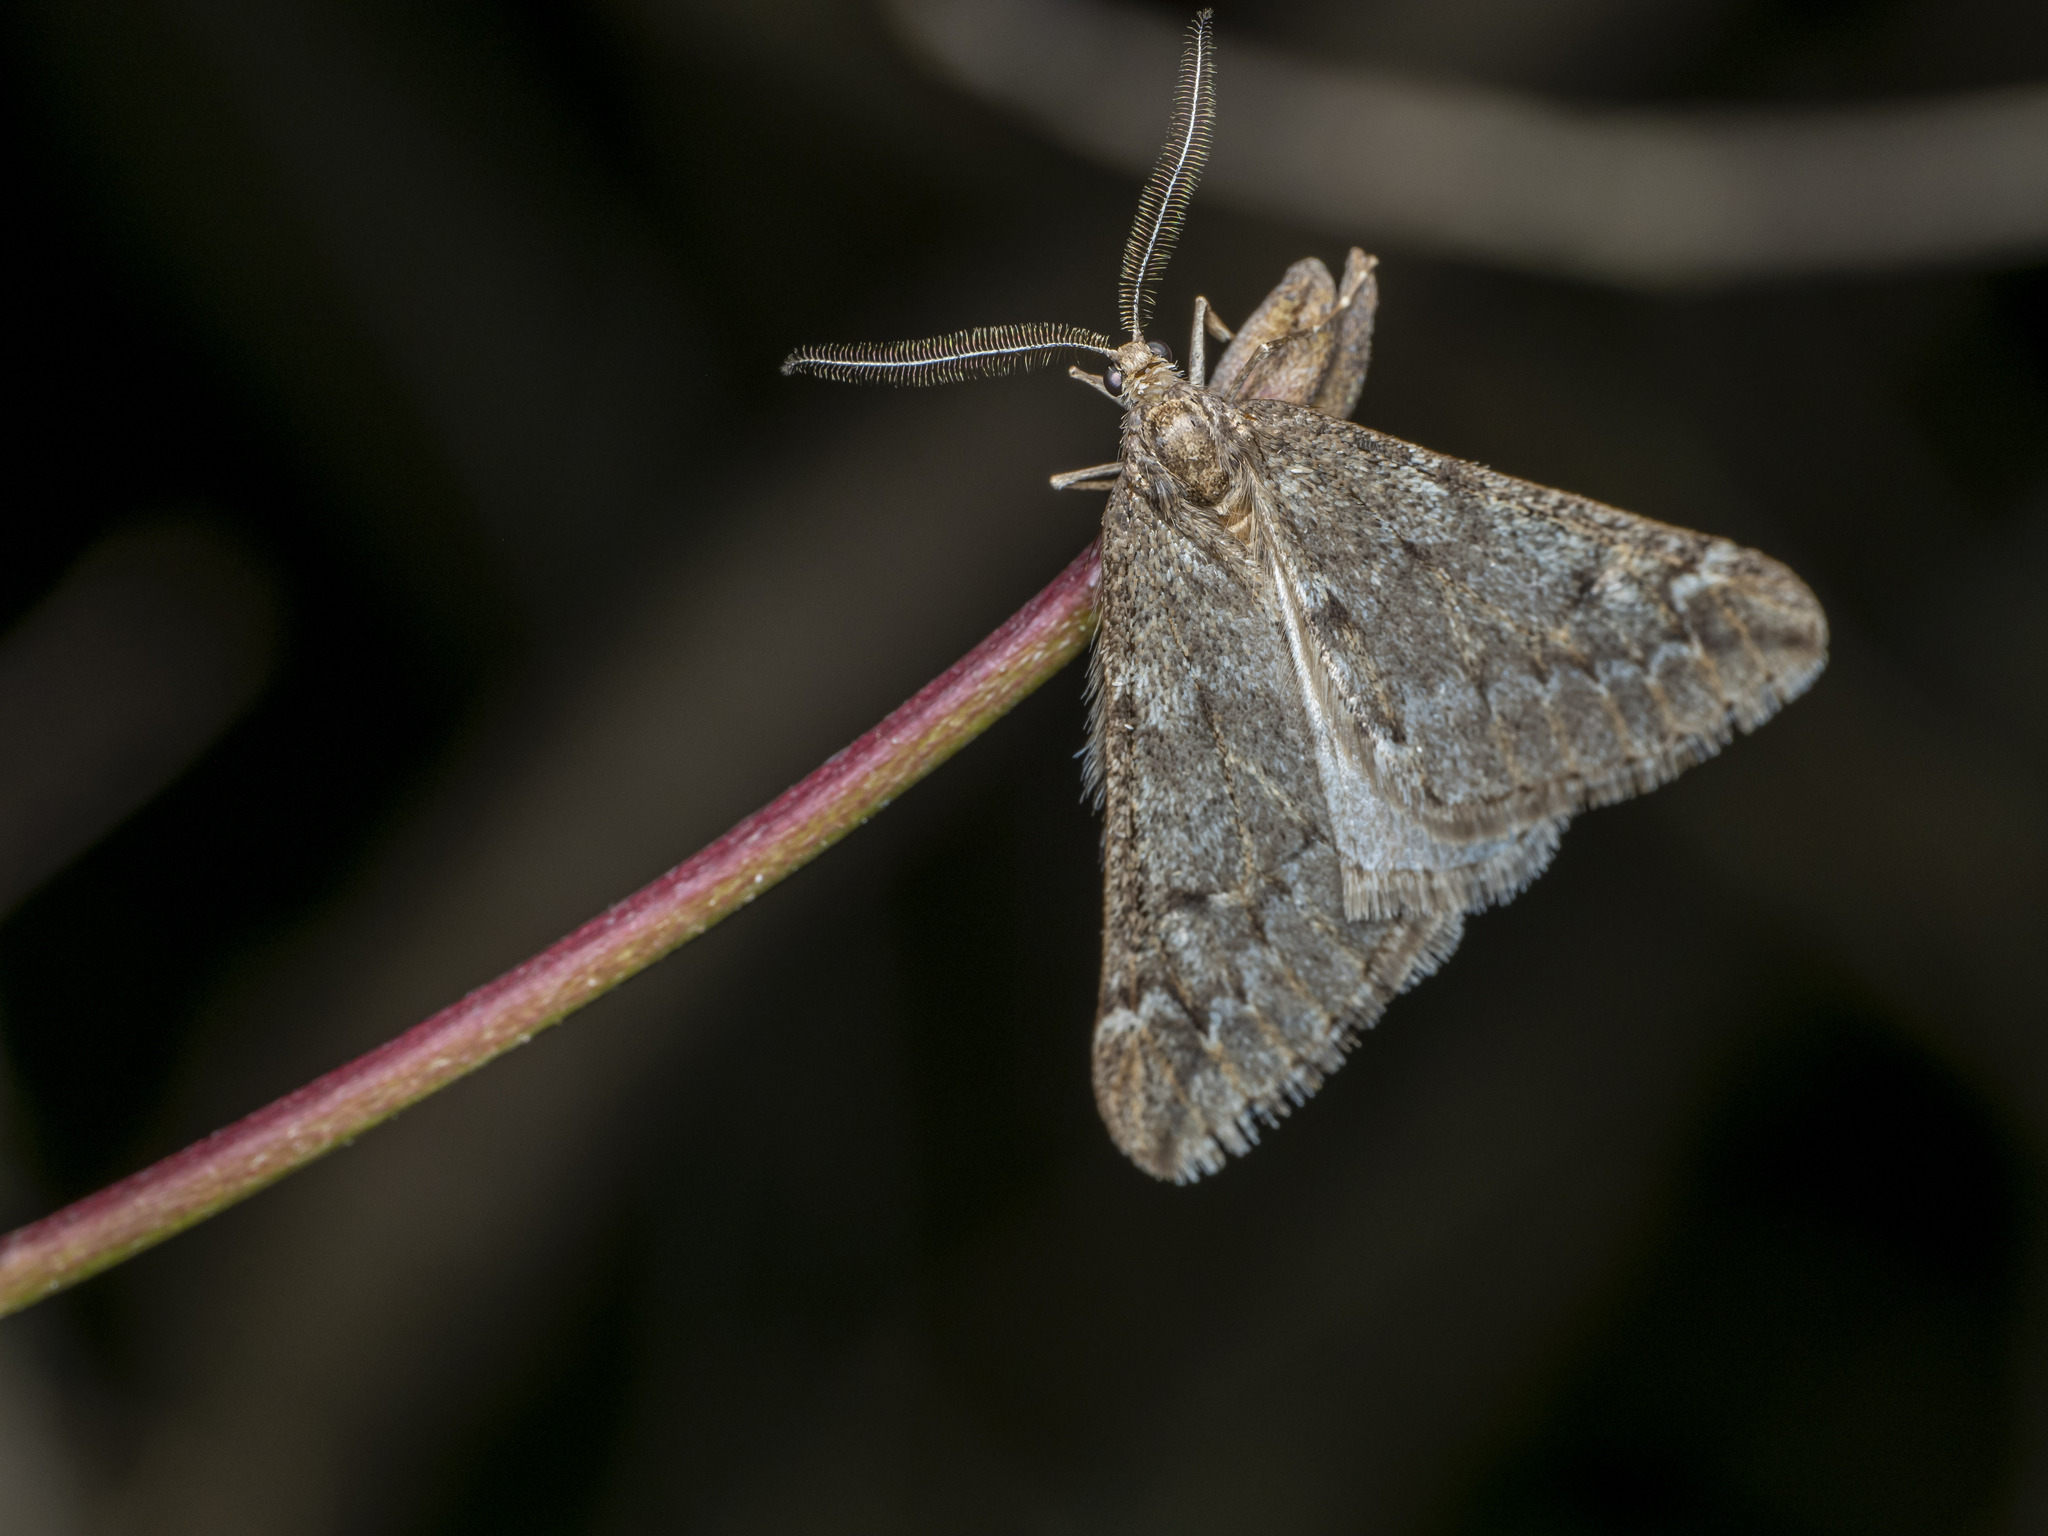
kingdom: Animalia
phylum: Arthropoda
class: Insecta
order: Lepidoptera
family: Geometridae
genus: Alsophila
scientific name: Alsophila aescularia
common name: March moth
